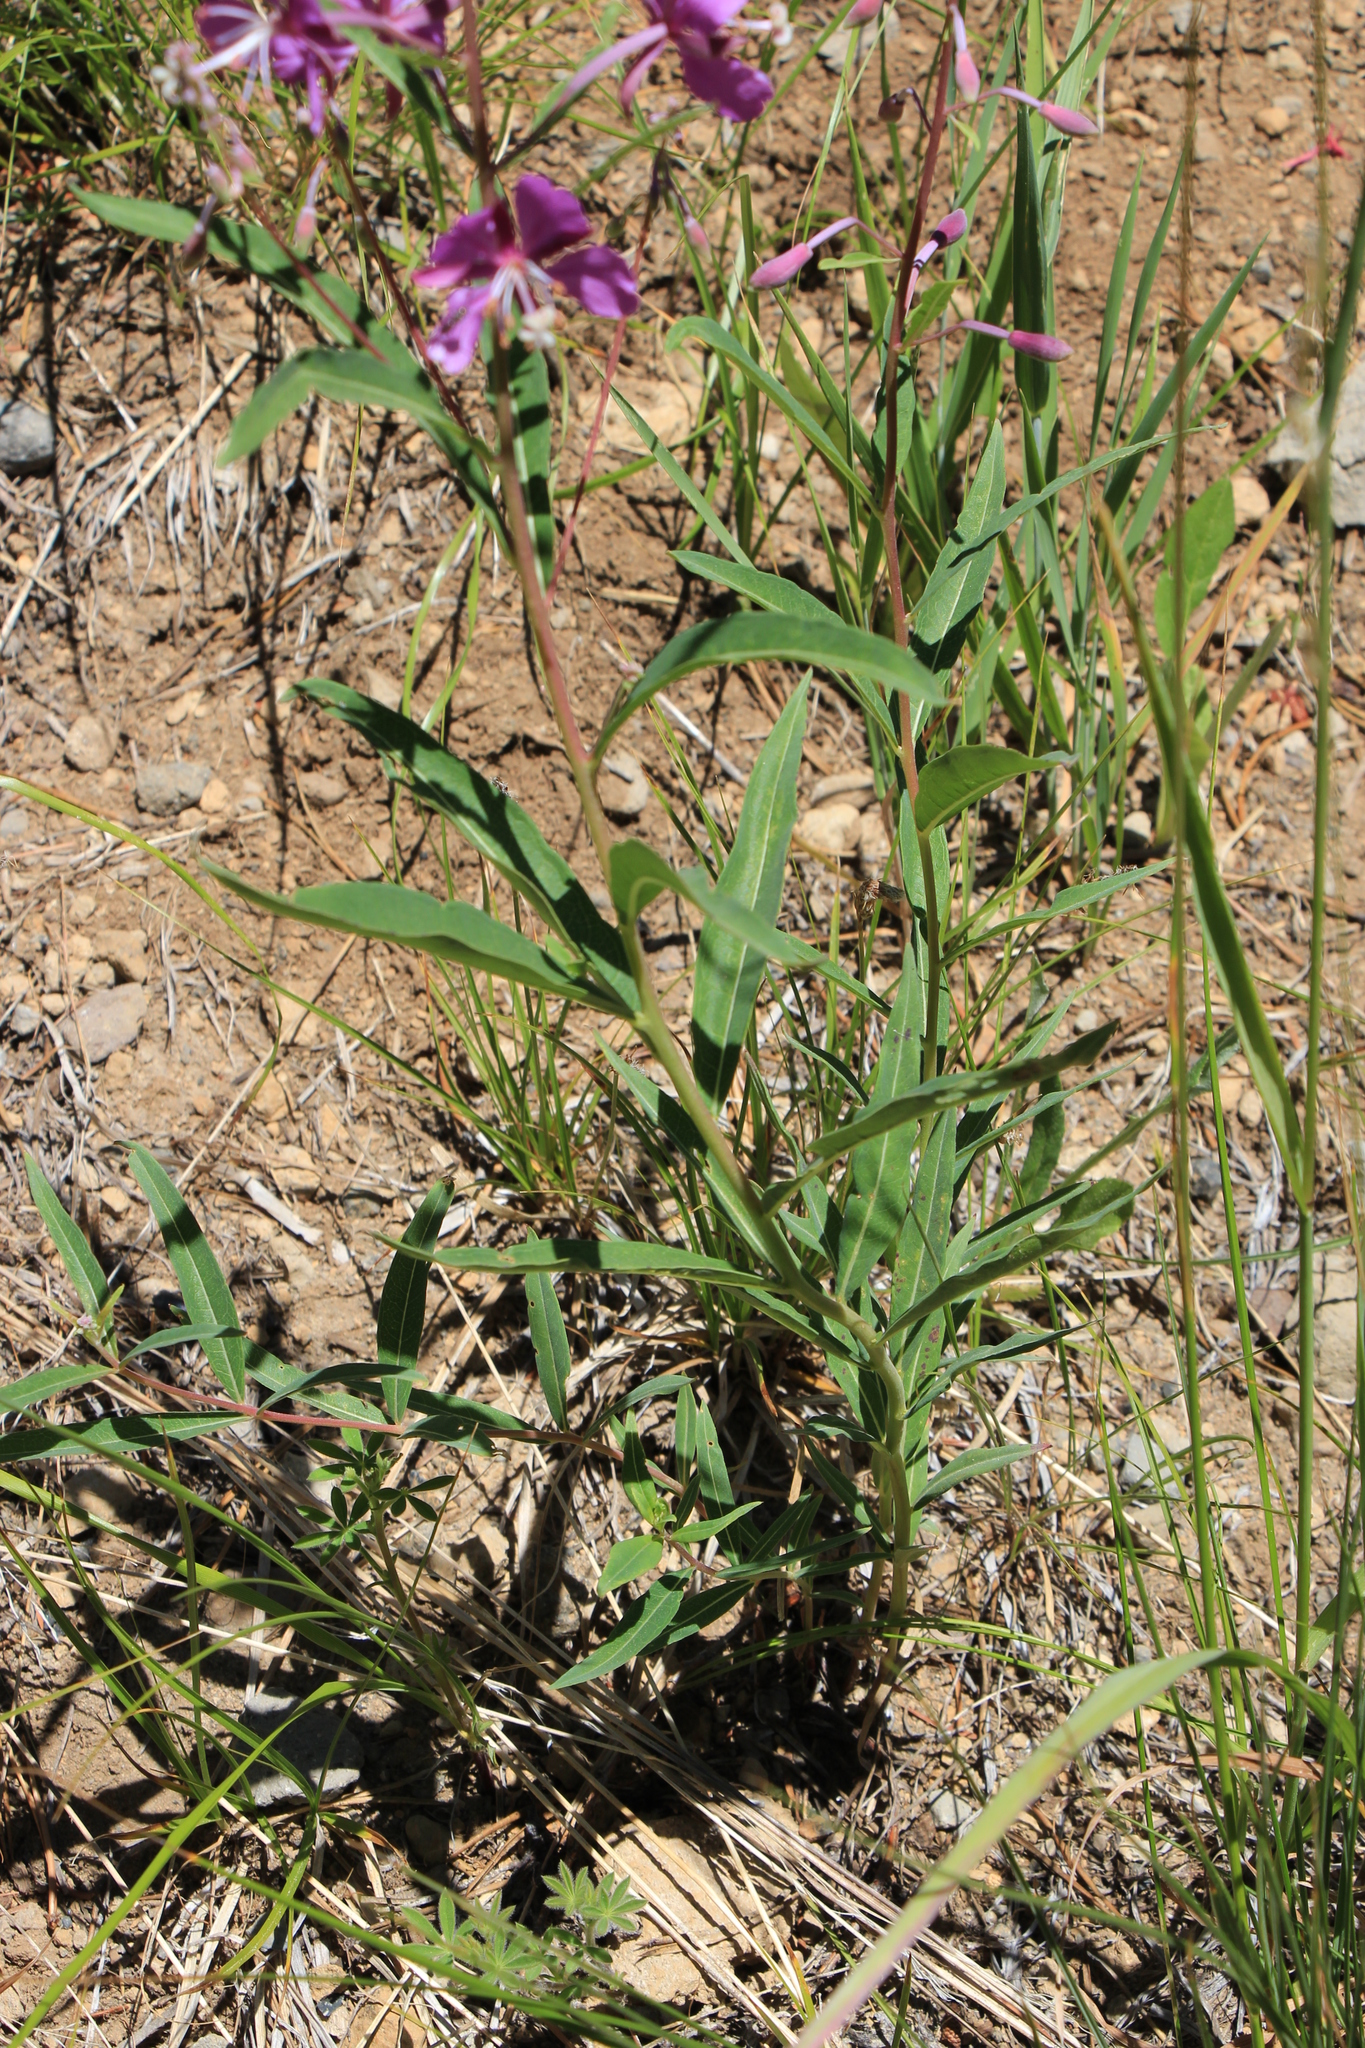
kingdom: Plantae
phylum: Tracheophyta
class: Magnoliopsida
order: Myrtales
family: Onagraceae
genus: Chamaenerion
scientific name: Chamaenerion angustifolium
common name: Fireweed
